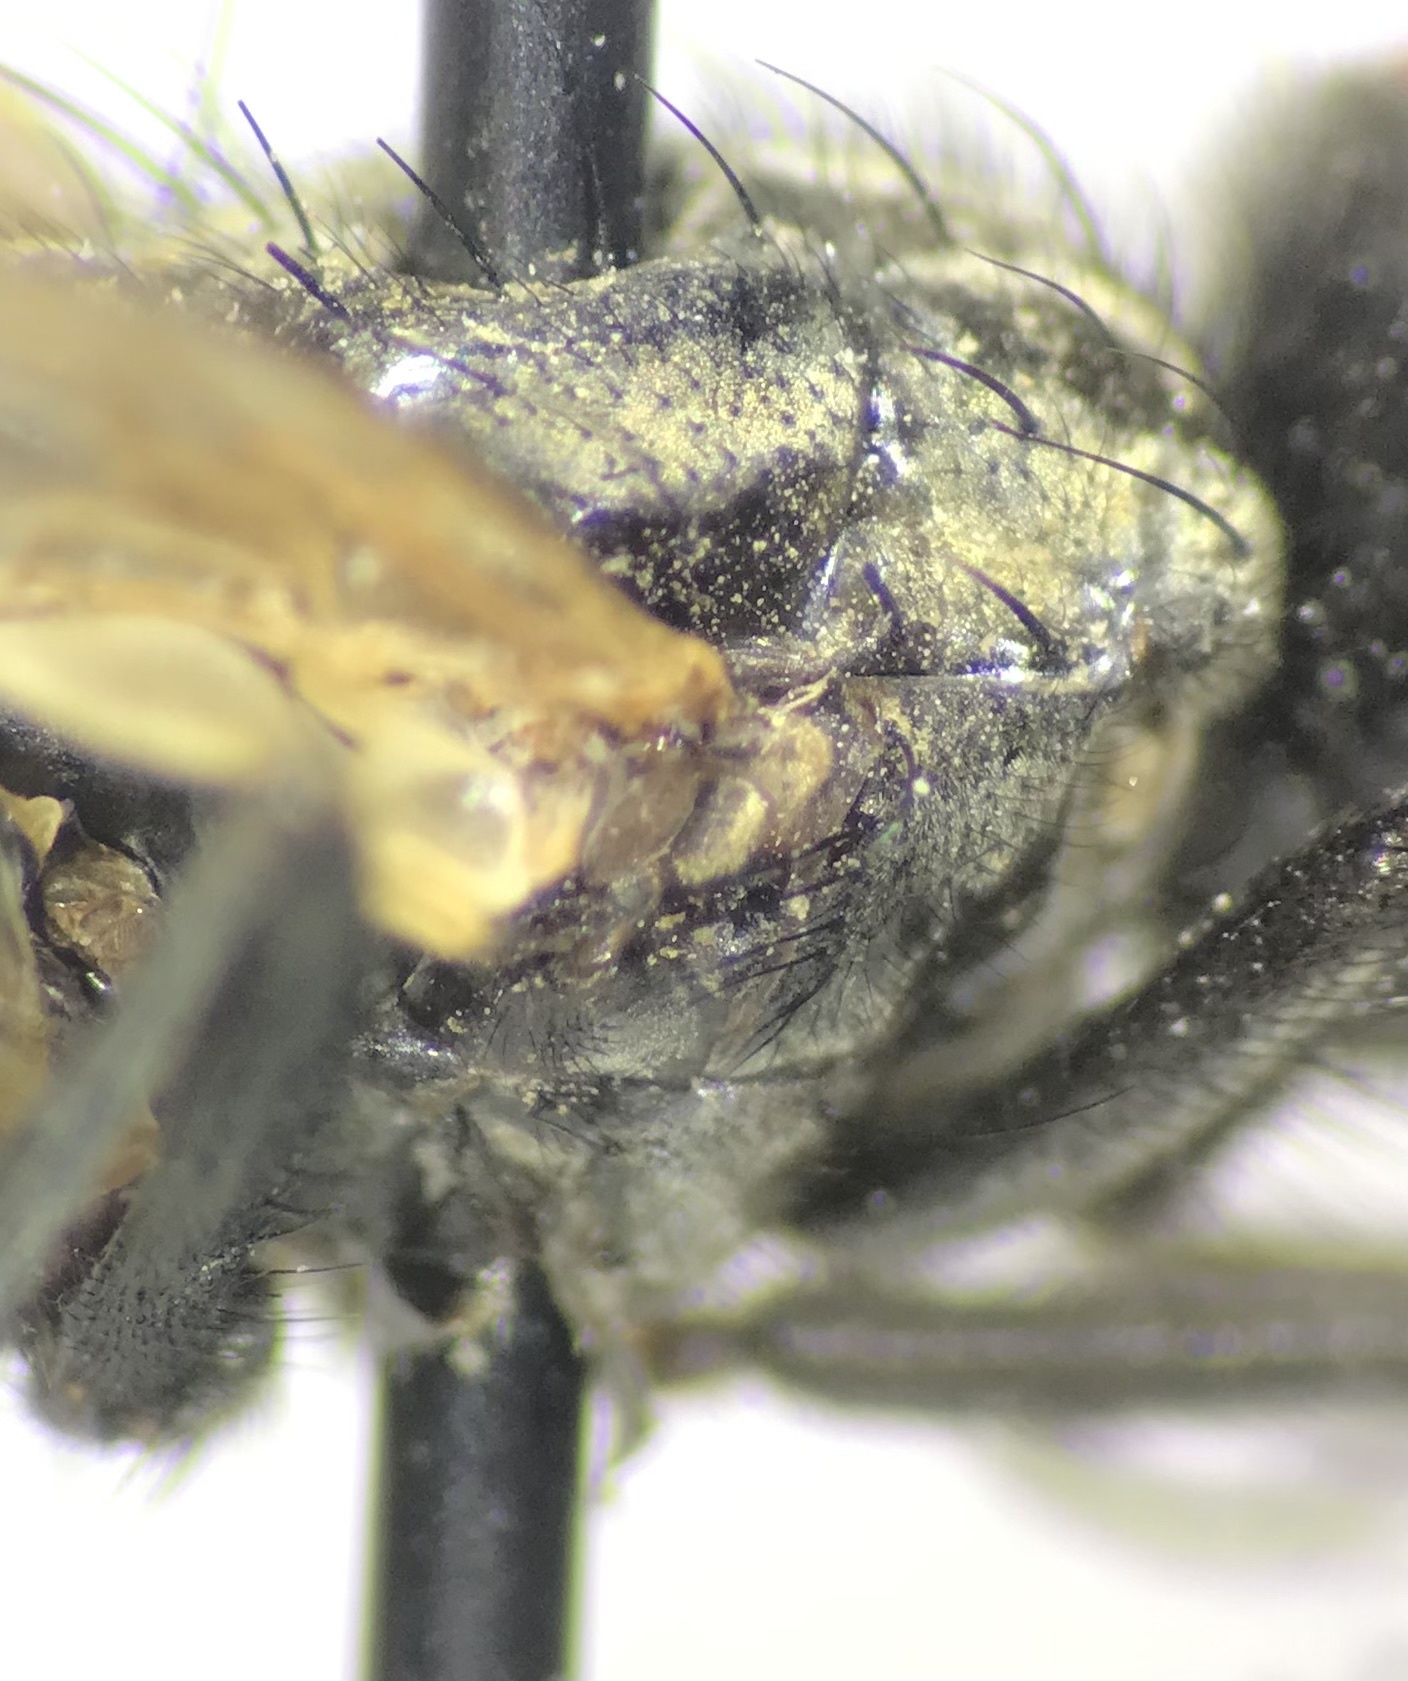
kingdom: Animalia
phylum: Arthropoda
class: Insecta
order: Diptera
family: Muscidae
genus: Musca
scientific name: Musca domestica
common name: House fly
